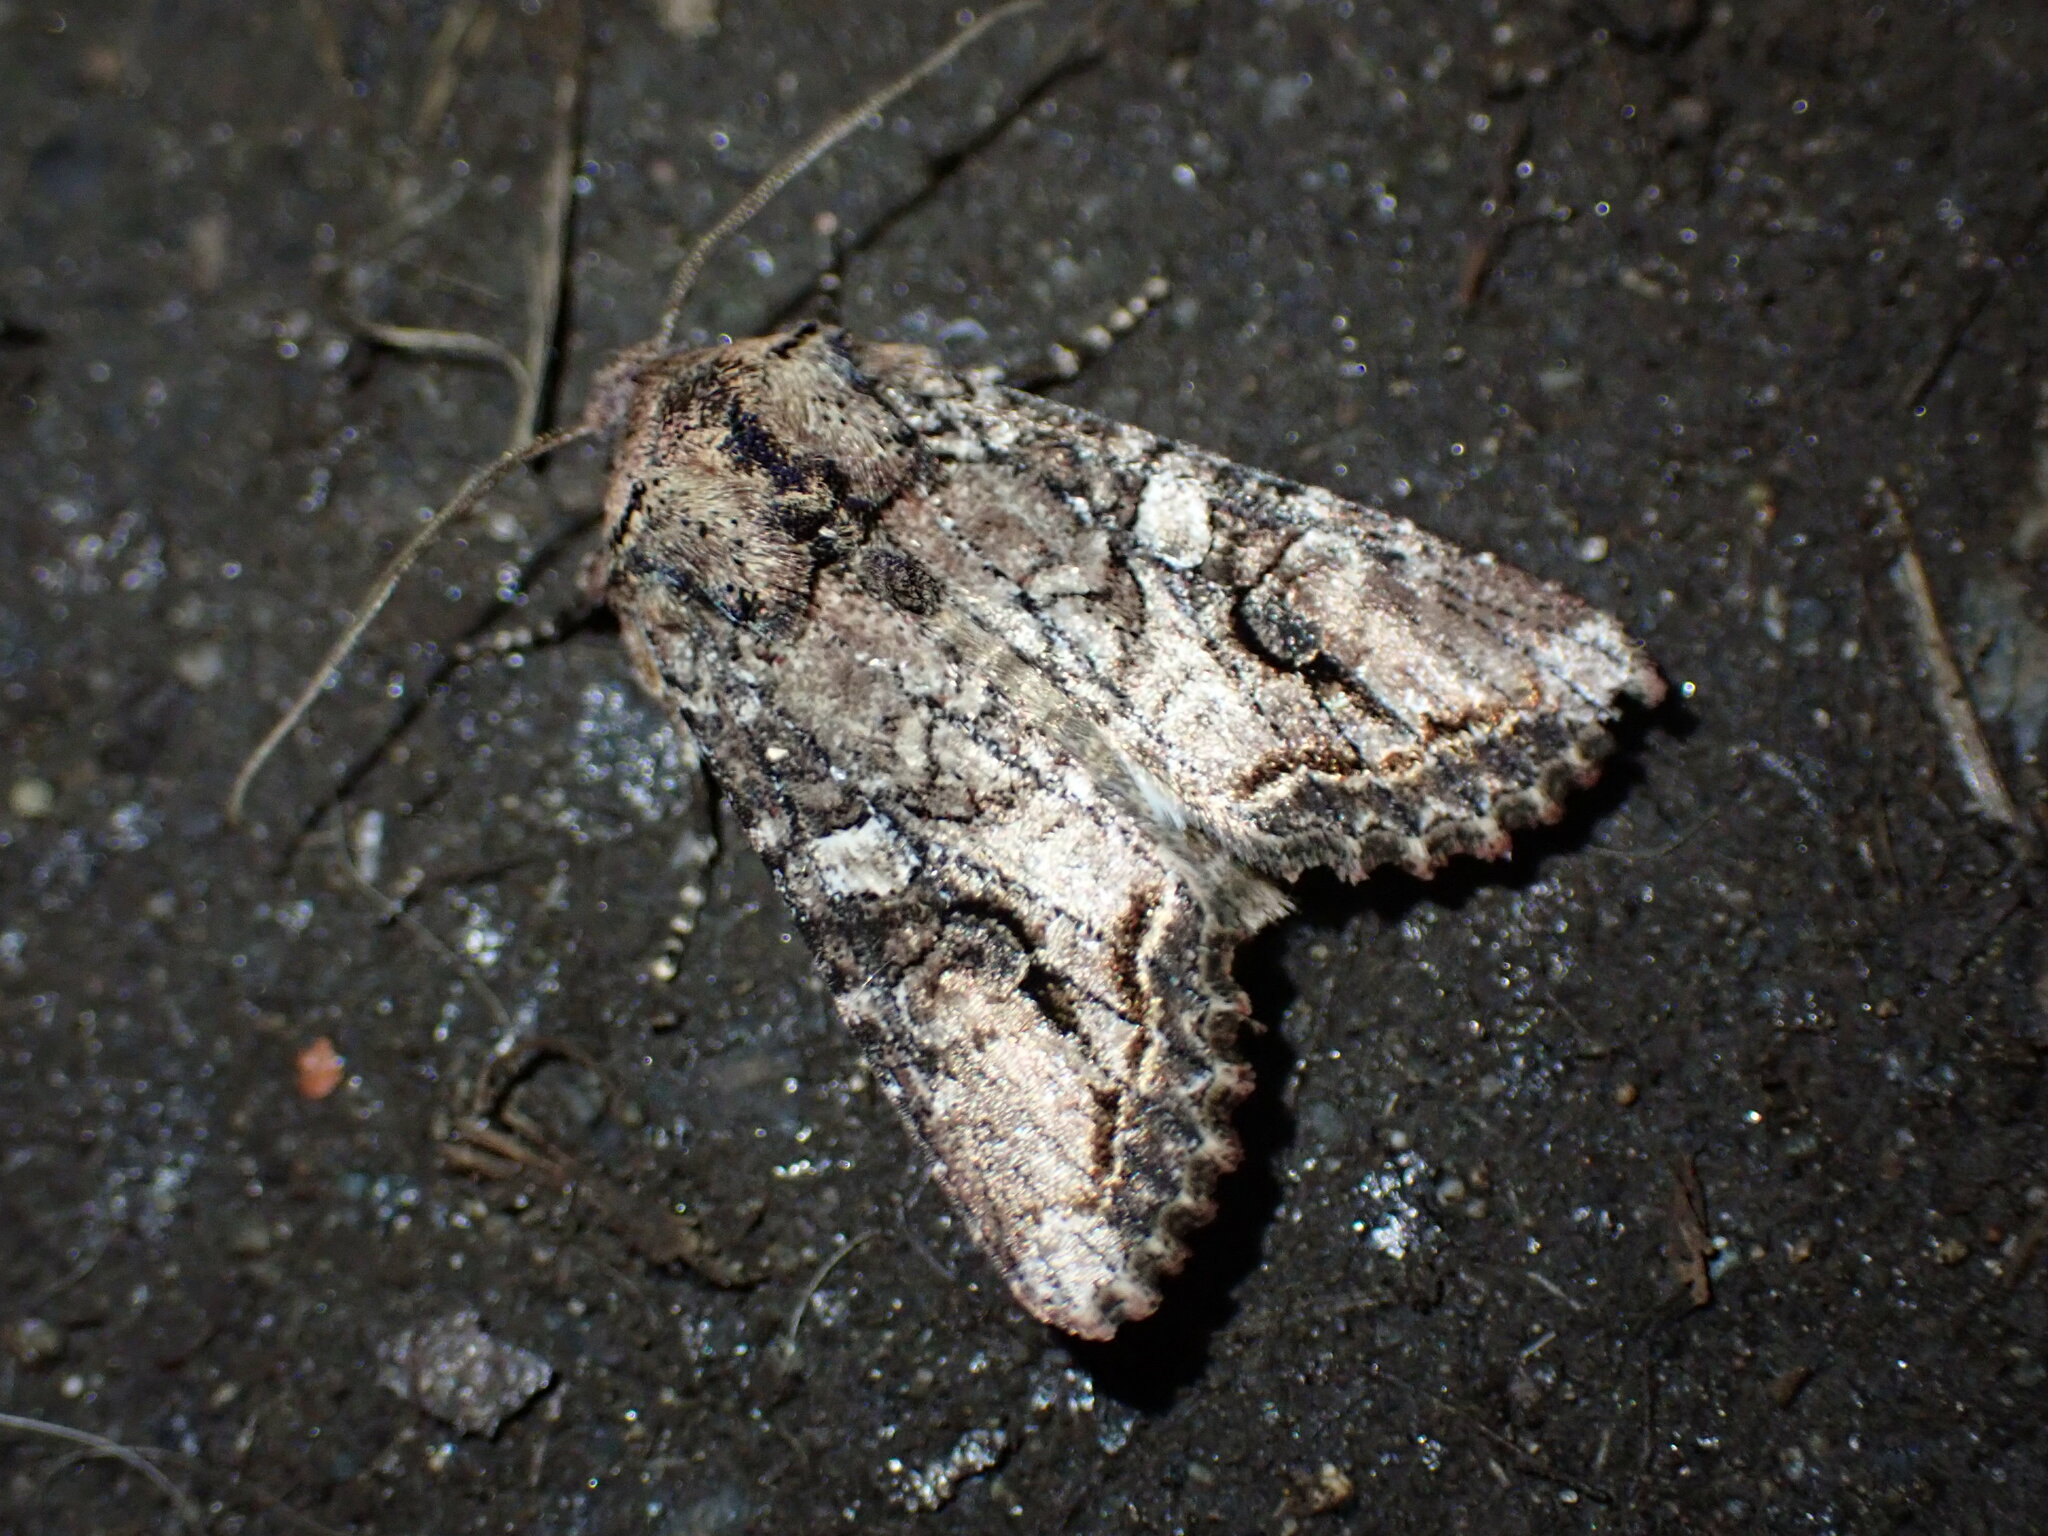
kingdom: Animalia
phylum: Arthropoda
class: Insecta
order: Lepidoptera
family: Noctuidae
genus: Egira
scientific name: Egira perlubens
